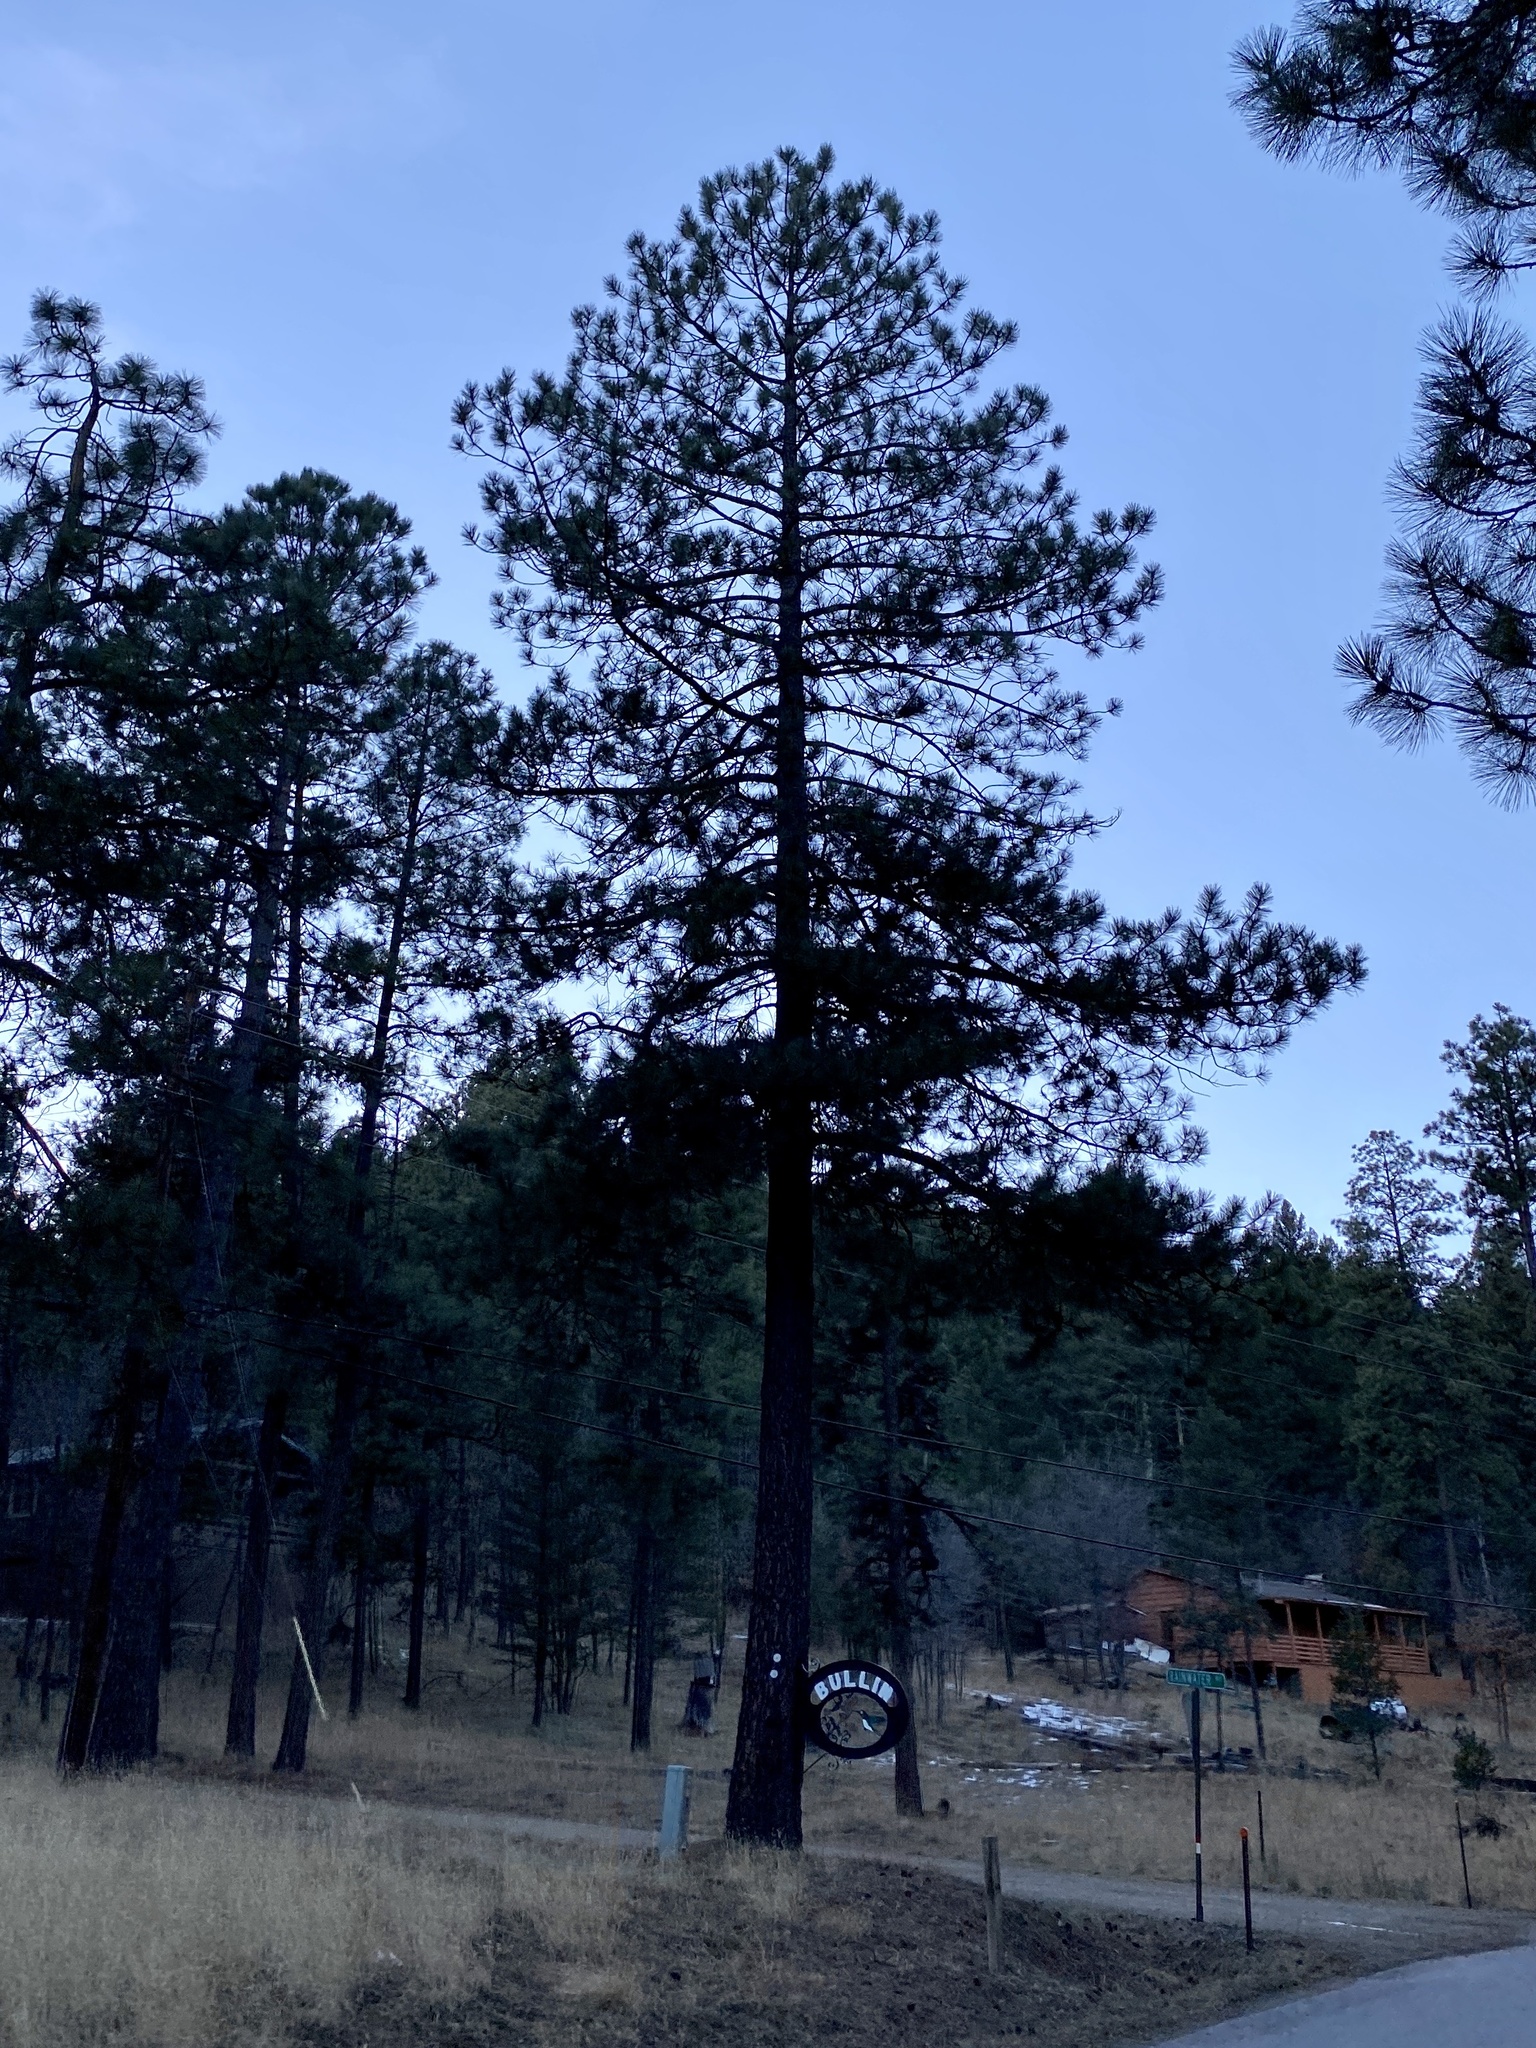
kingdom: Plantae
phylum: Tracheophyta
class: Pinopsida
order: Pinales
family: Pinaceae
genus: Pinus
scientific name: Pinus ponderosa
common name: Western yellow-pine
